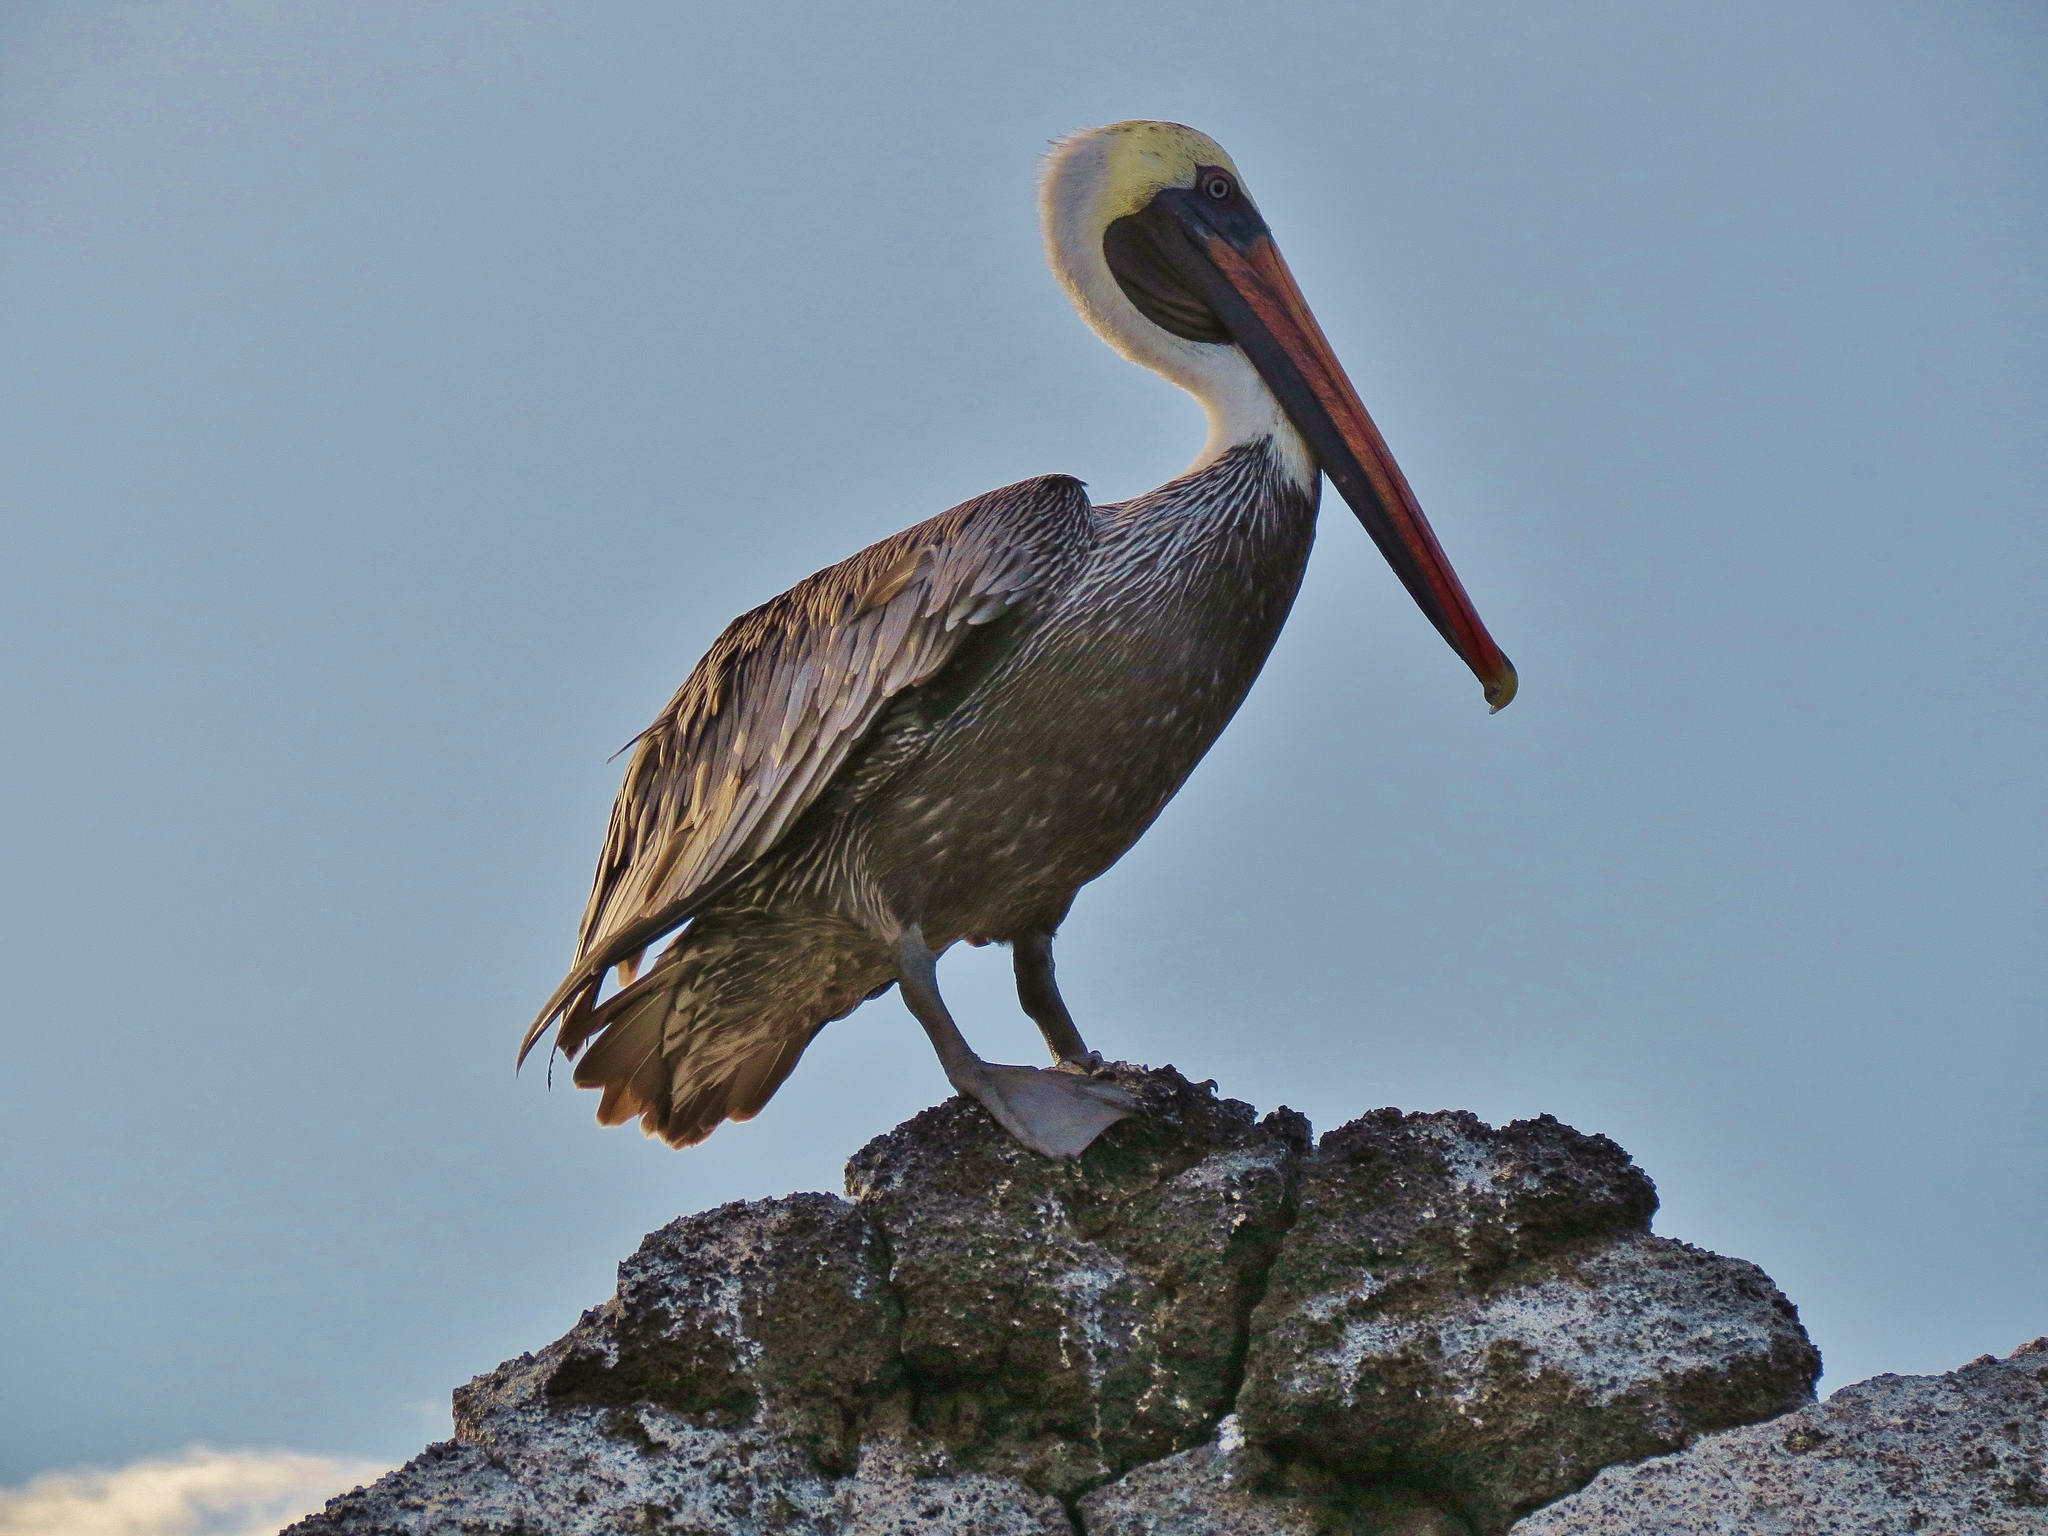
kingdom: Animalia
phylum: Chordata
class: Aves
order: Pelecaniformes
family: Pelecanidae
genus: Pelecanus
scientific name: Pelecanus occidentalis
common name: Brown pelican
